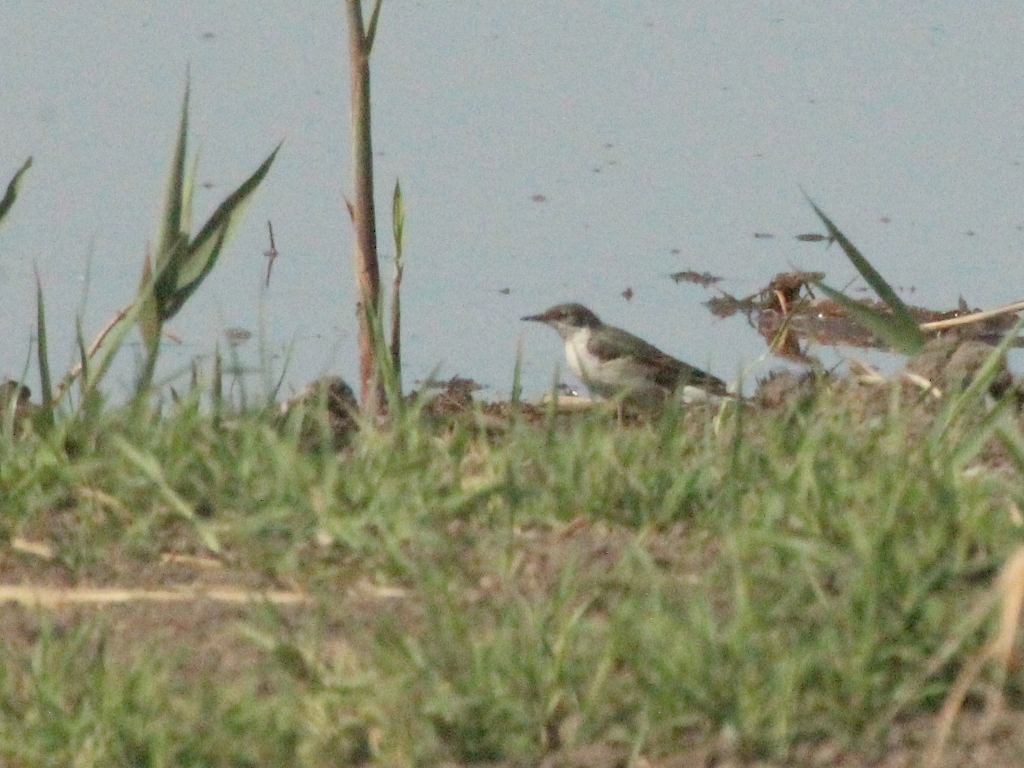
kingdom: Animalia
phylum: Chordata
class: Aves
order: Passeriformes
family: Motacillidae
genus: Motacilla
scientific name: Motacilla flava
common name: Western yellow wagtail
